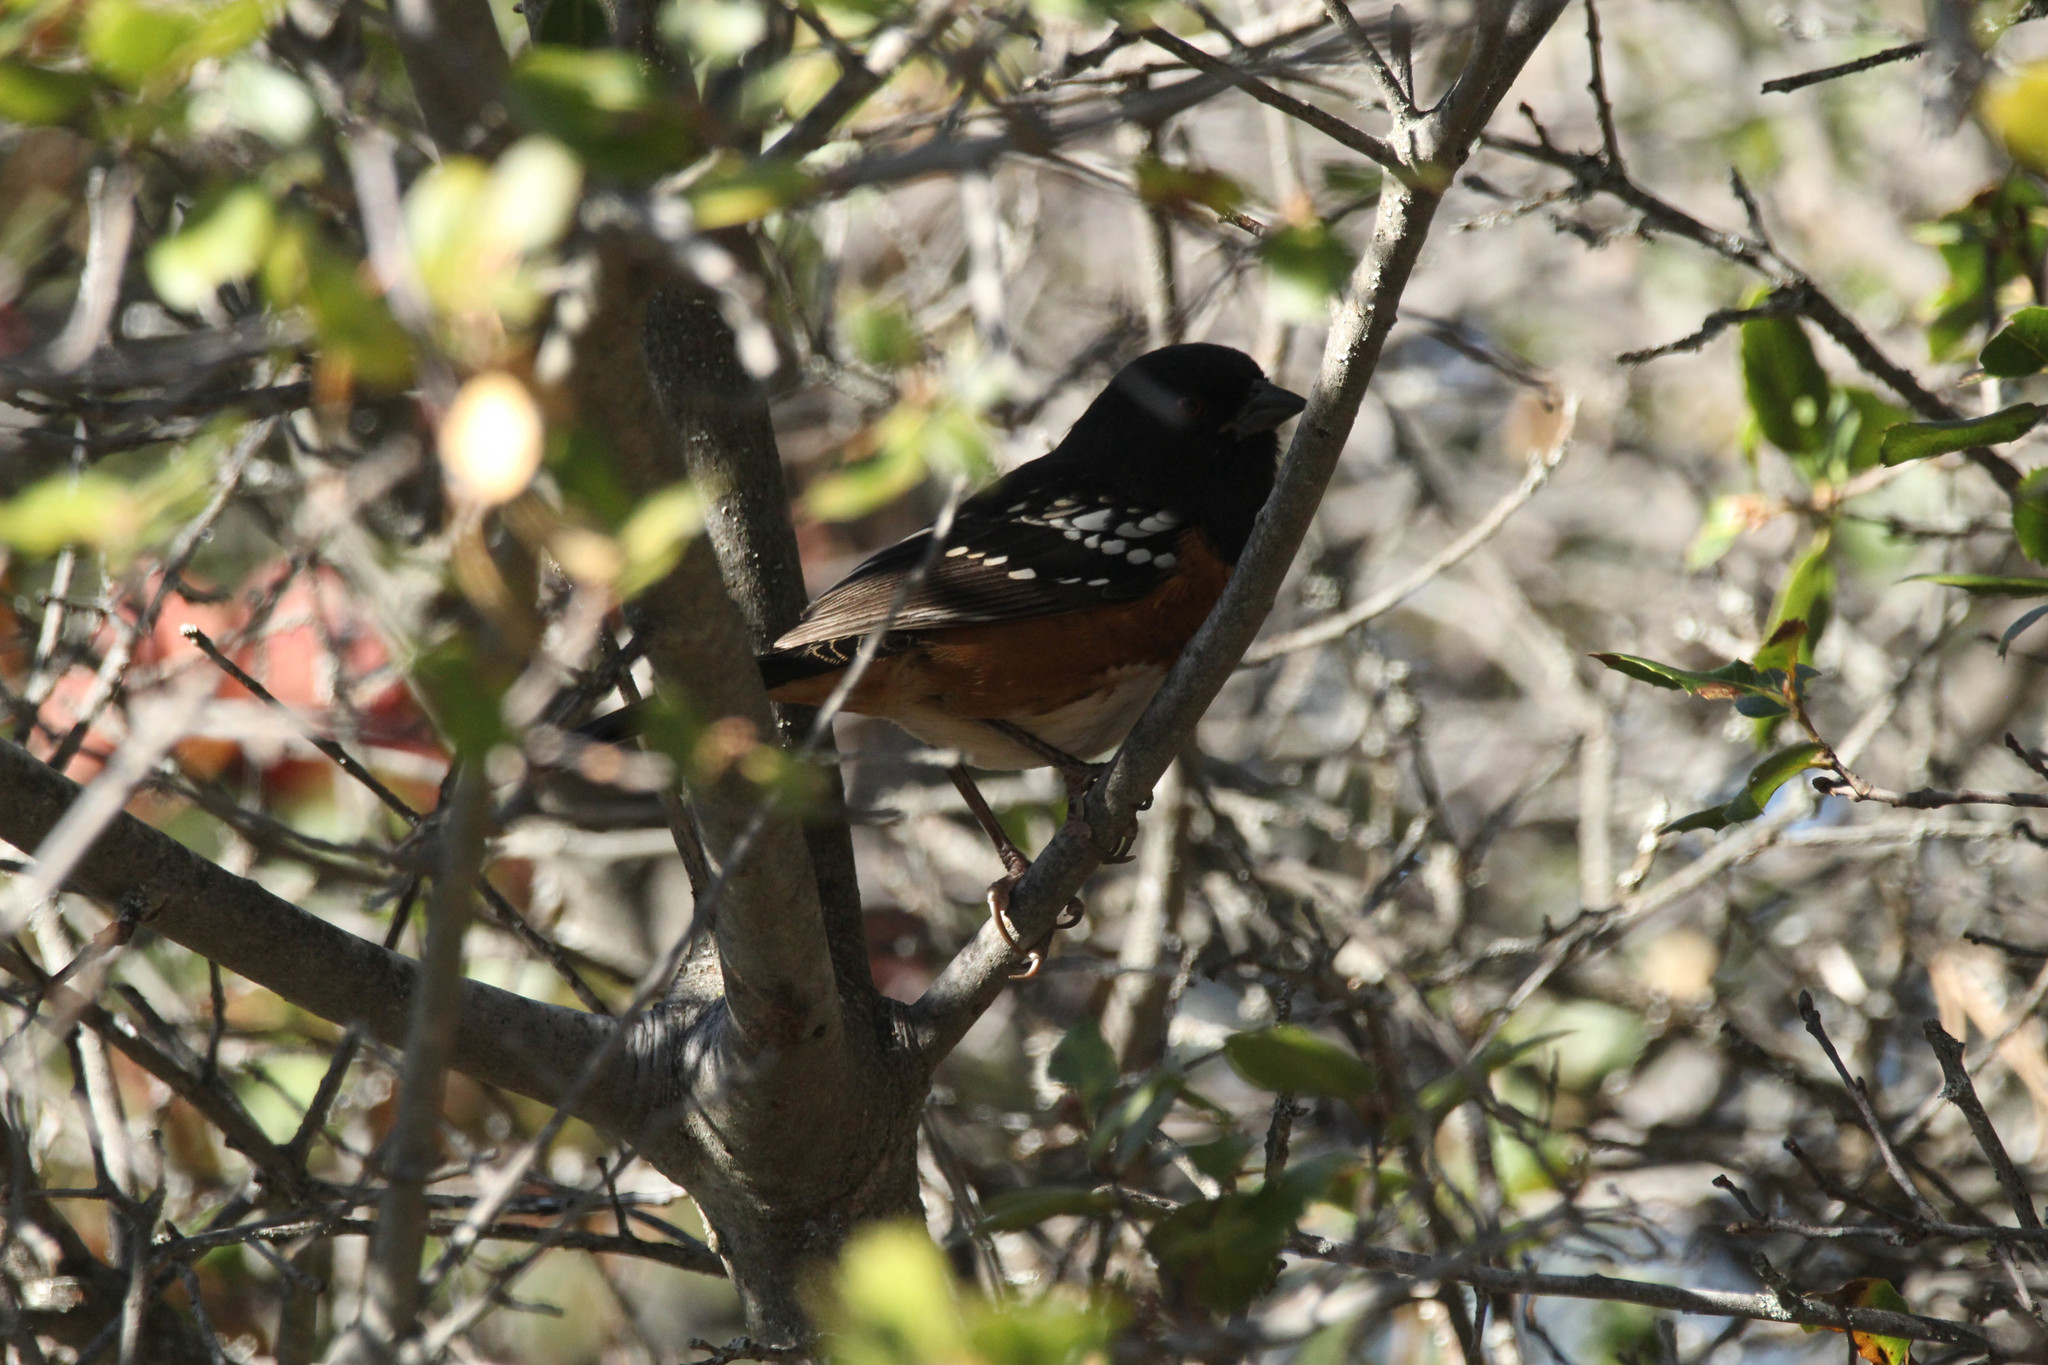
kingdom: Animalia
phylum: Chordata
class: Aves
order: Passeriformes
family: Passerellidae
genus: Pipilo
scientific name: Pipilo maculatus
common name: Spotted towhee
